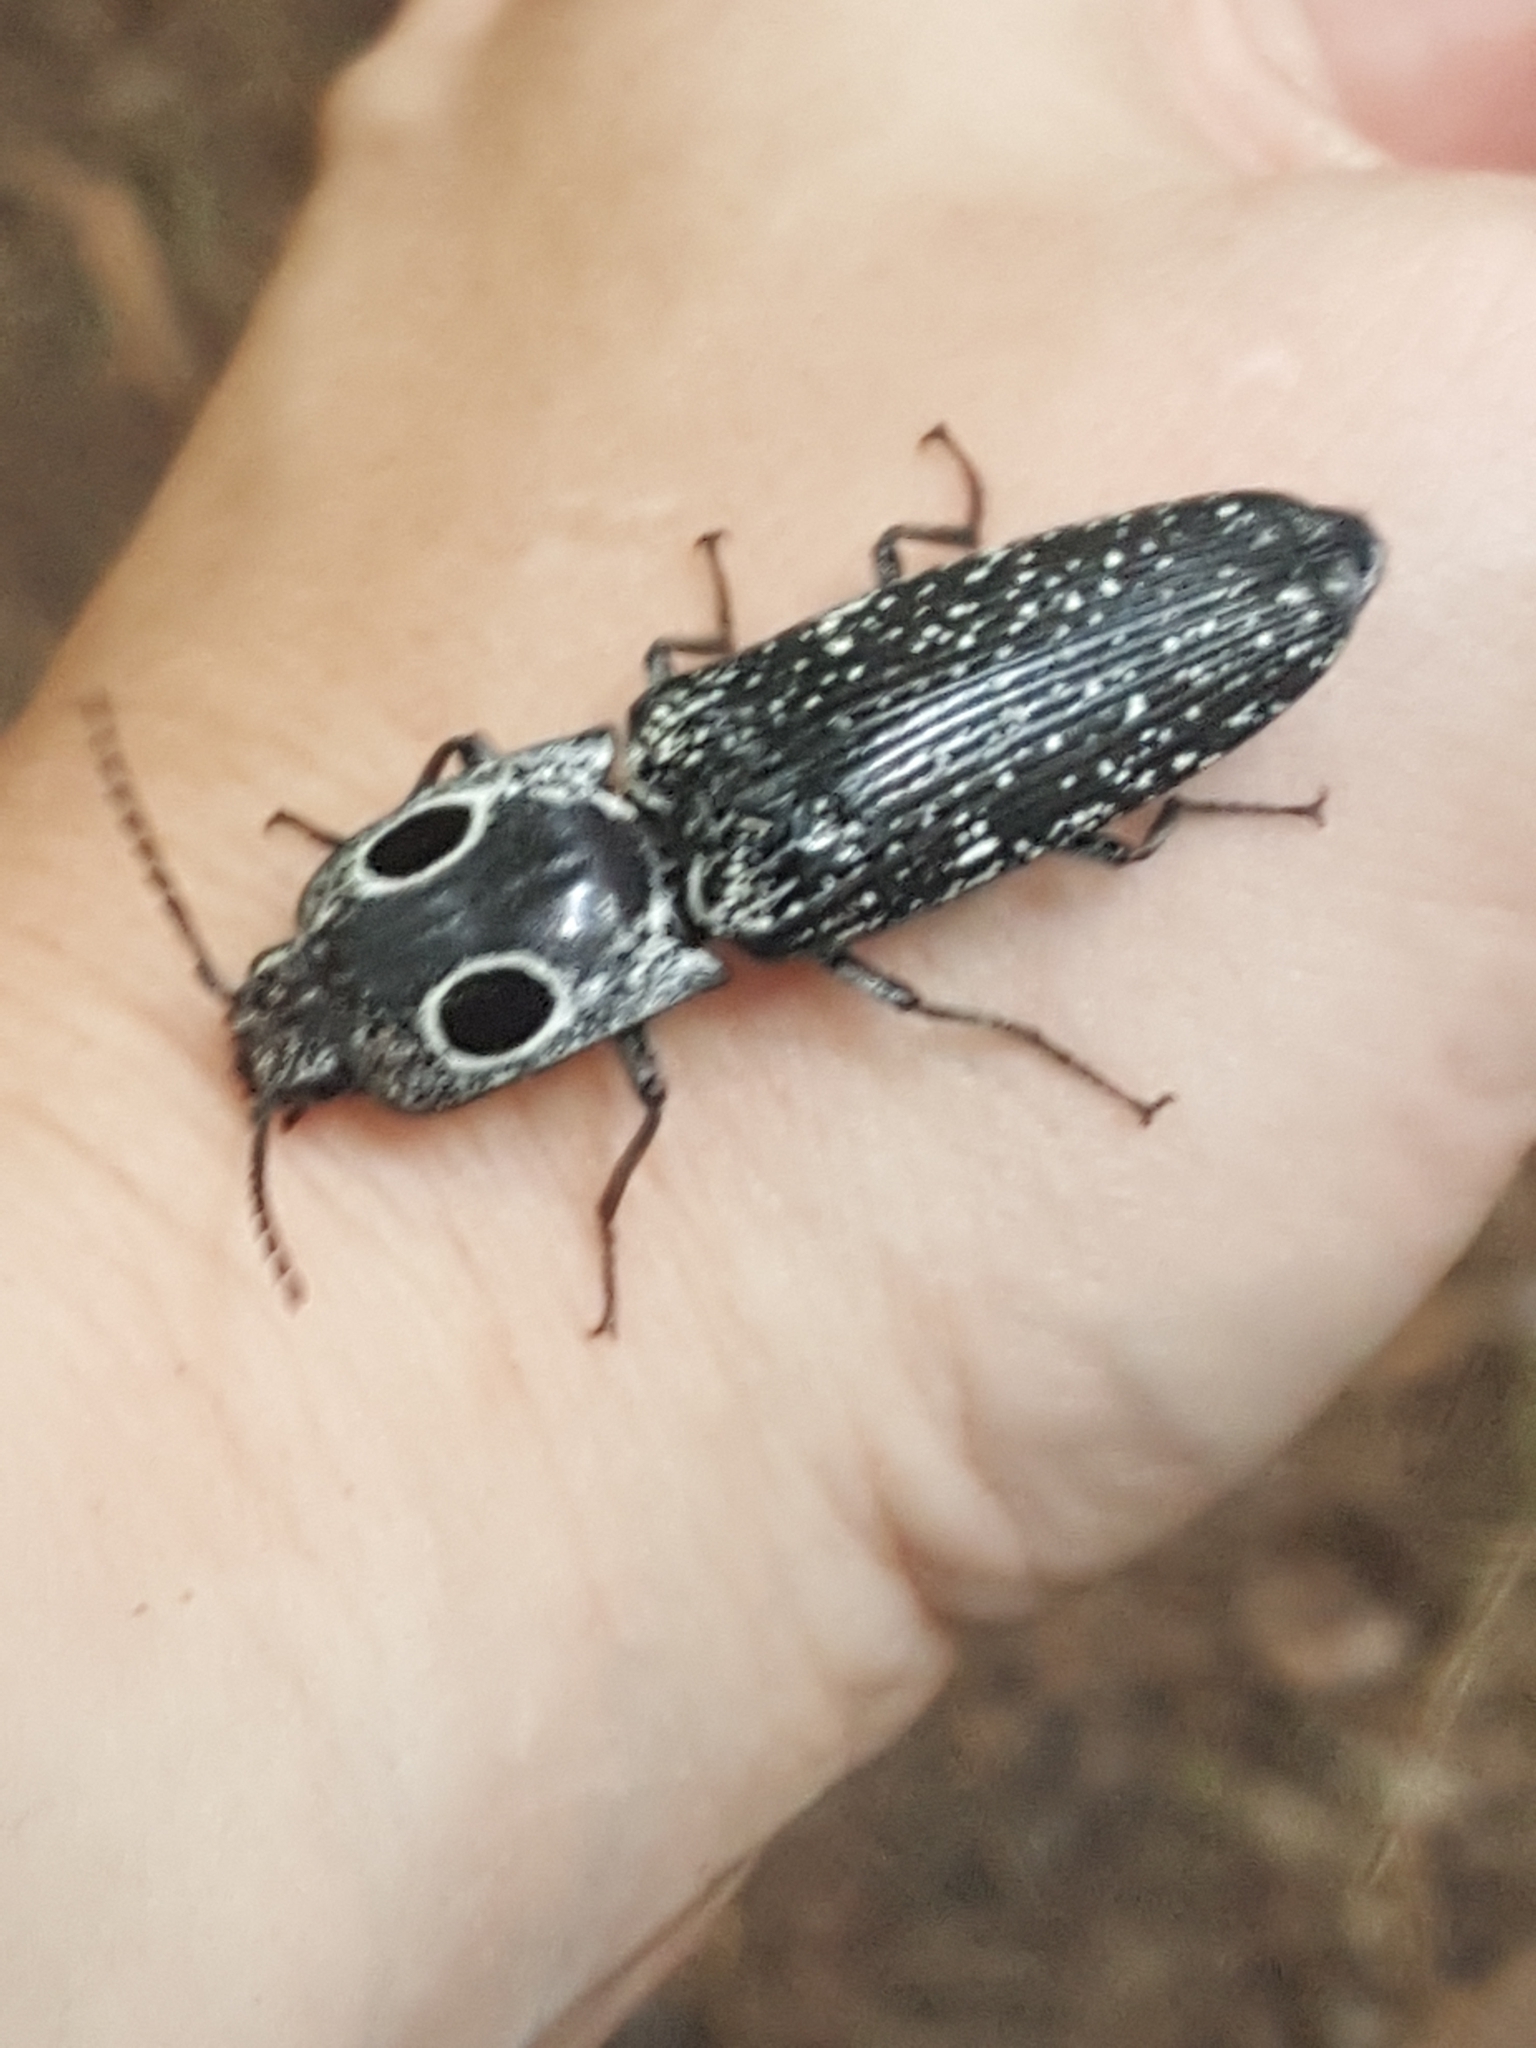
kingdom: Animalia
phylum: Arthropoda
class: Insecta
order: Coleoptera
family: Elateridae
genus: Alaus
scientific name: Alaus oculatus
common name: Eastern eyed click beetle
